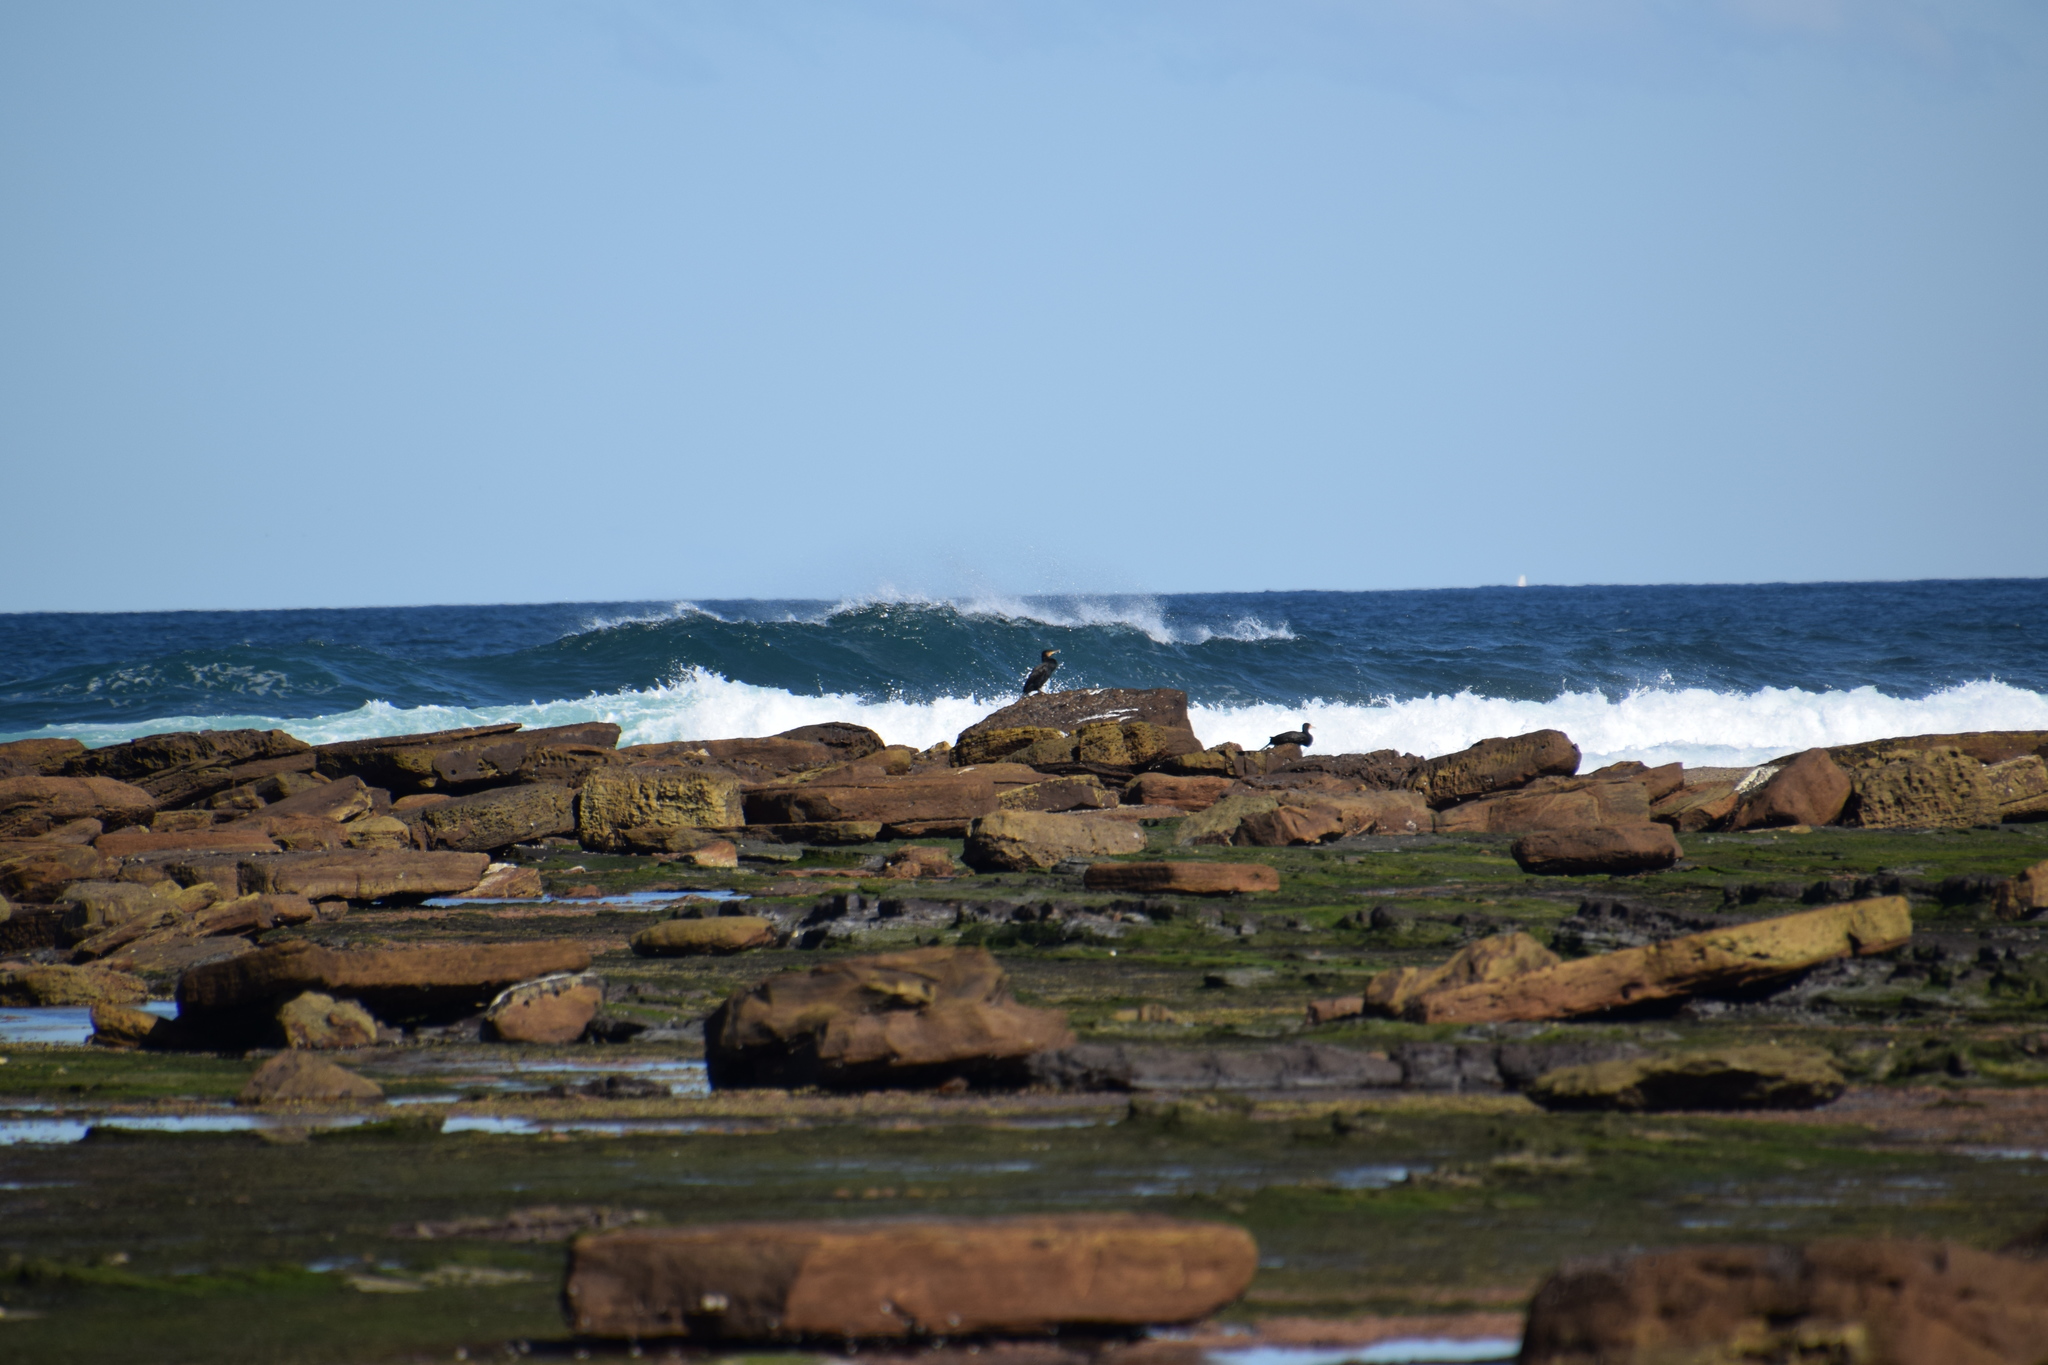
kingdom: Animalia
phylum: Chordata
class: Aves
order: Suliformes
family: Phalacrocoracidae
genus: Phalacrocorax
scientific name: Phalacrocorax carbo
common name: Great cormorant
